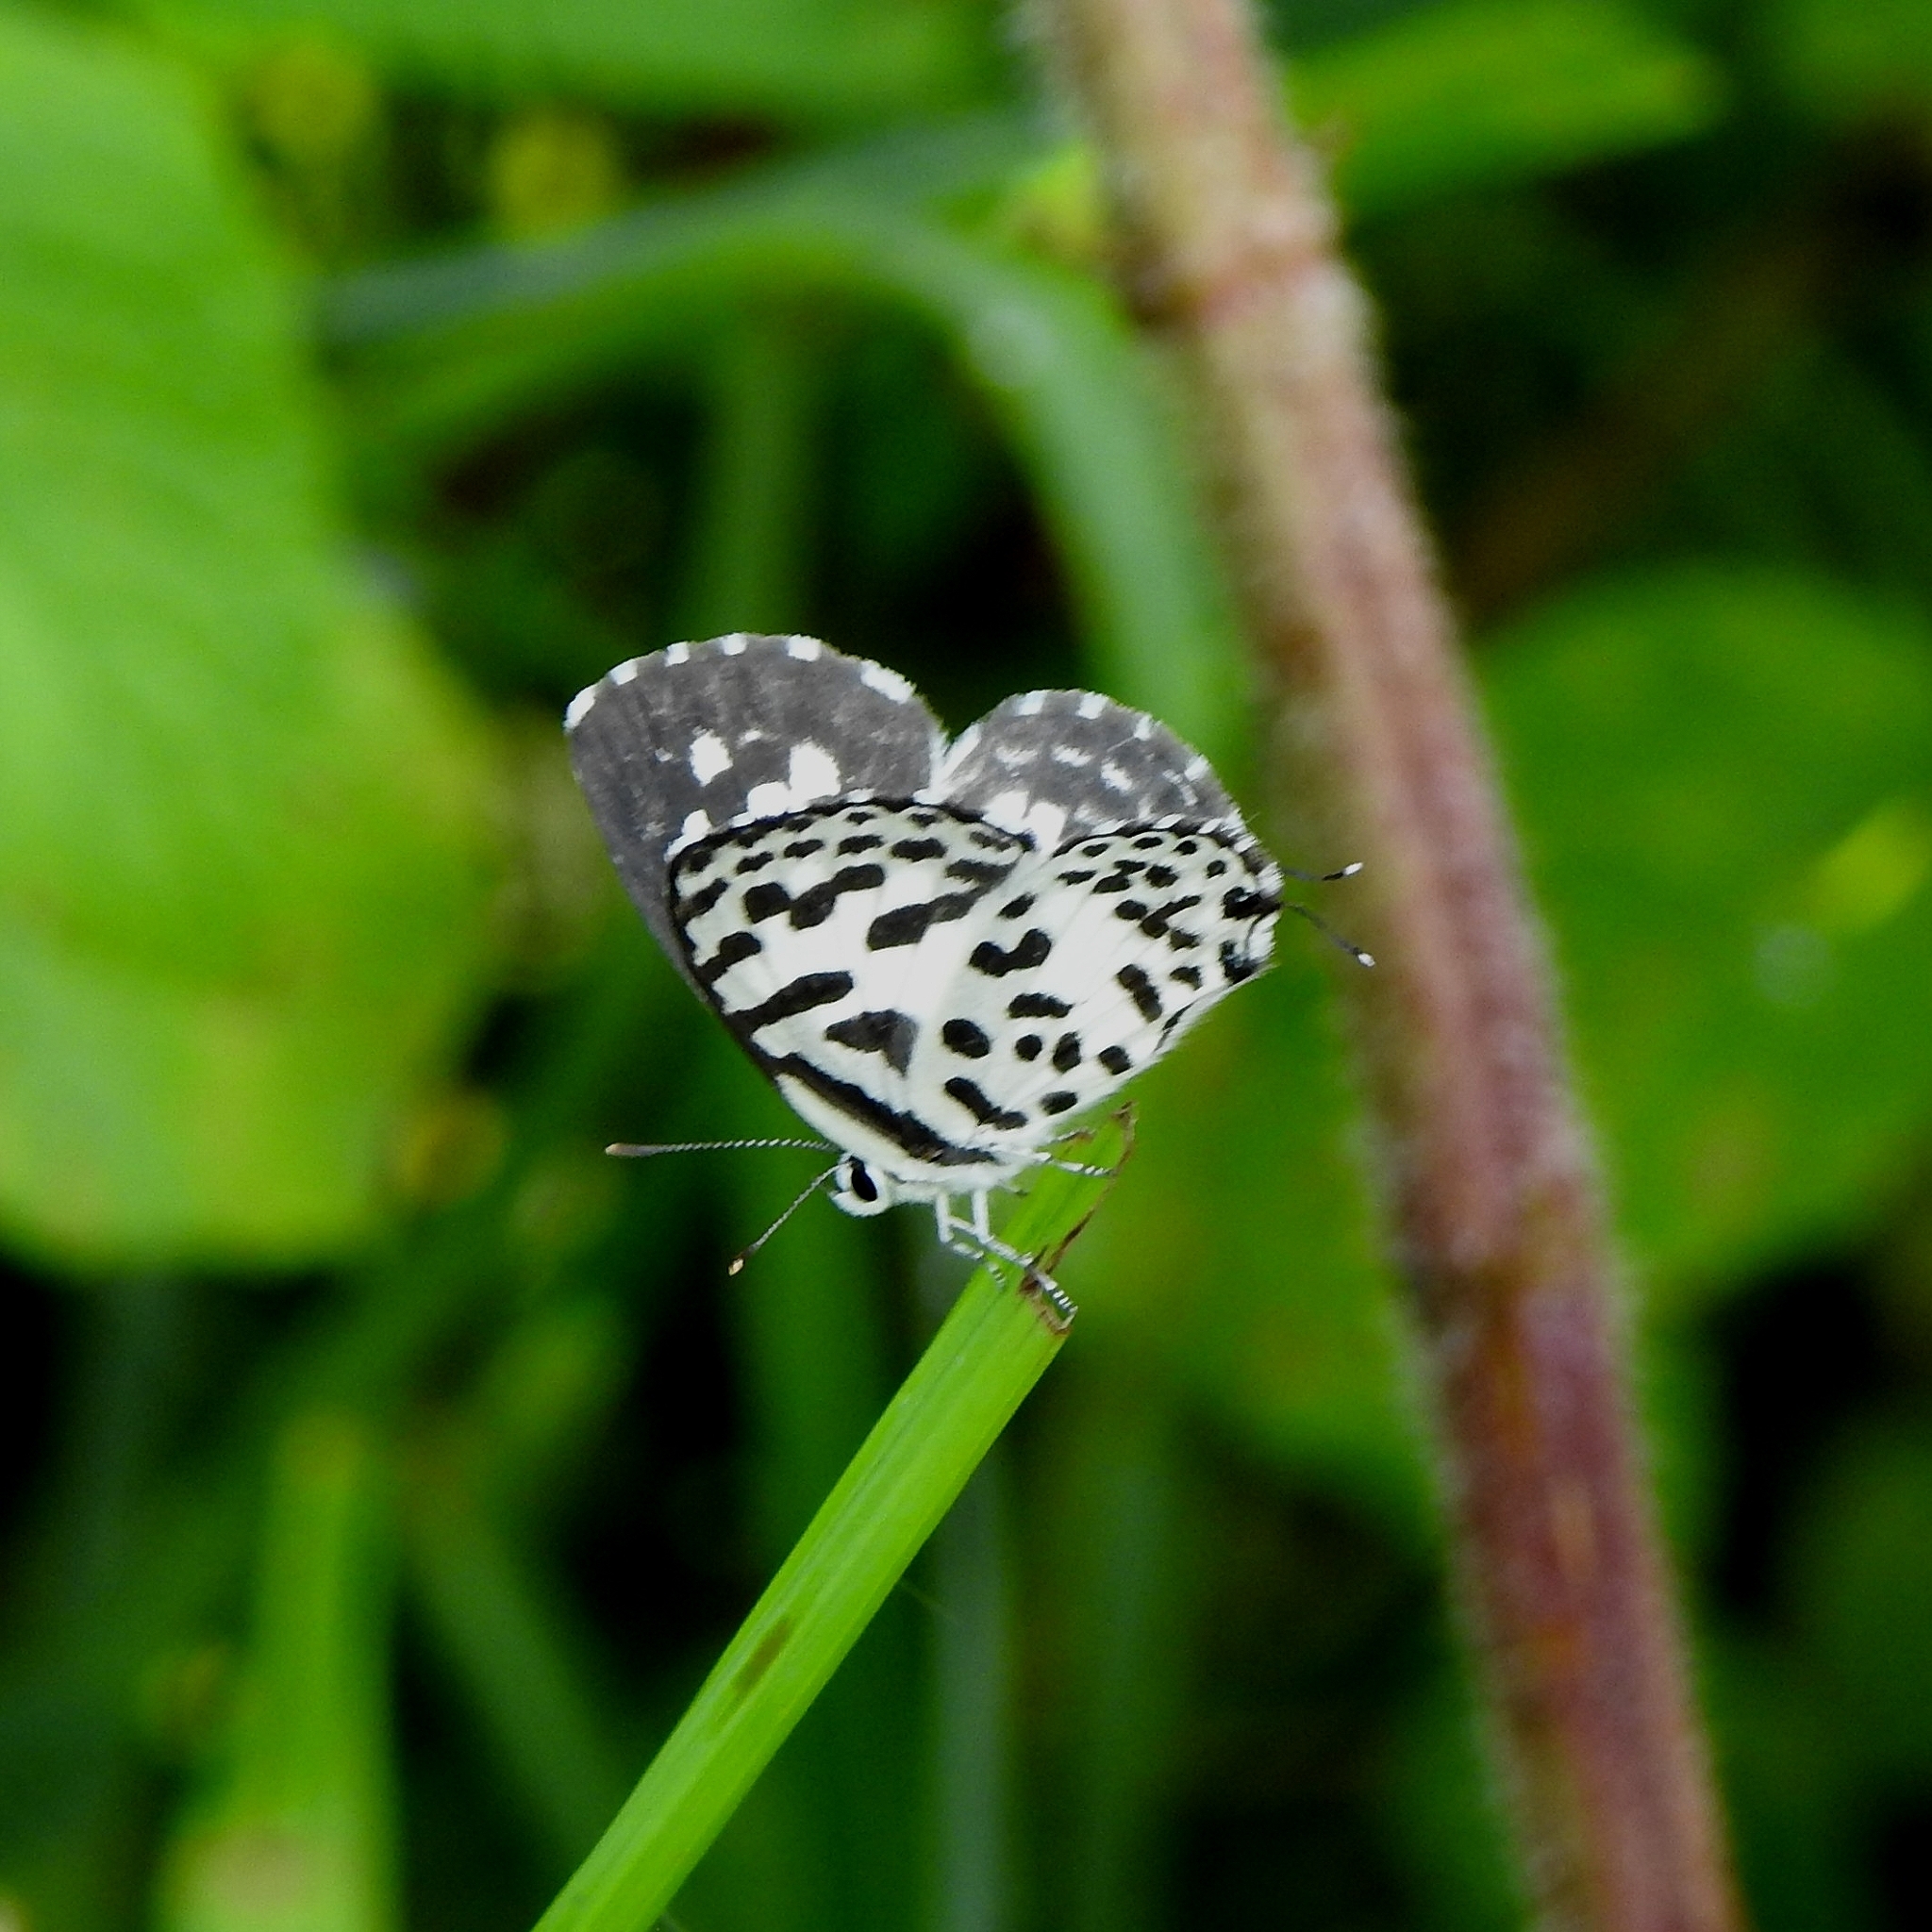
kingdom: Animalia
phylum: Arthropoda
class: Insecta
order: Lepidoptera
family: Lycaenidae
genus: Castalius
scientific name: Castalius rosimon
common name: Common pierrot
